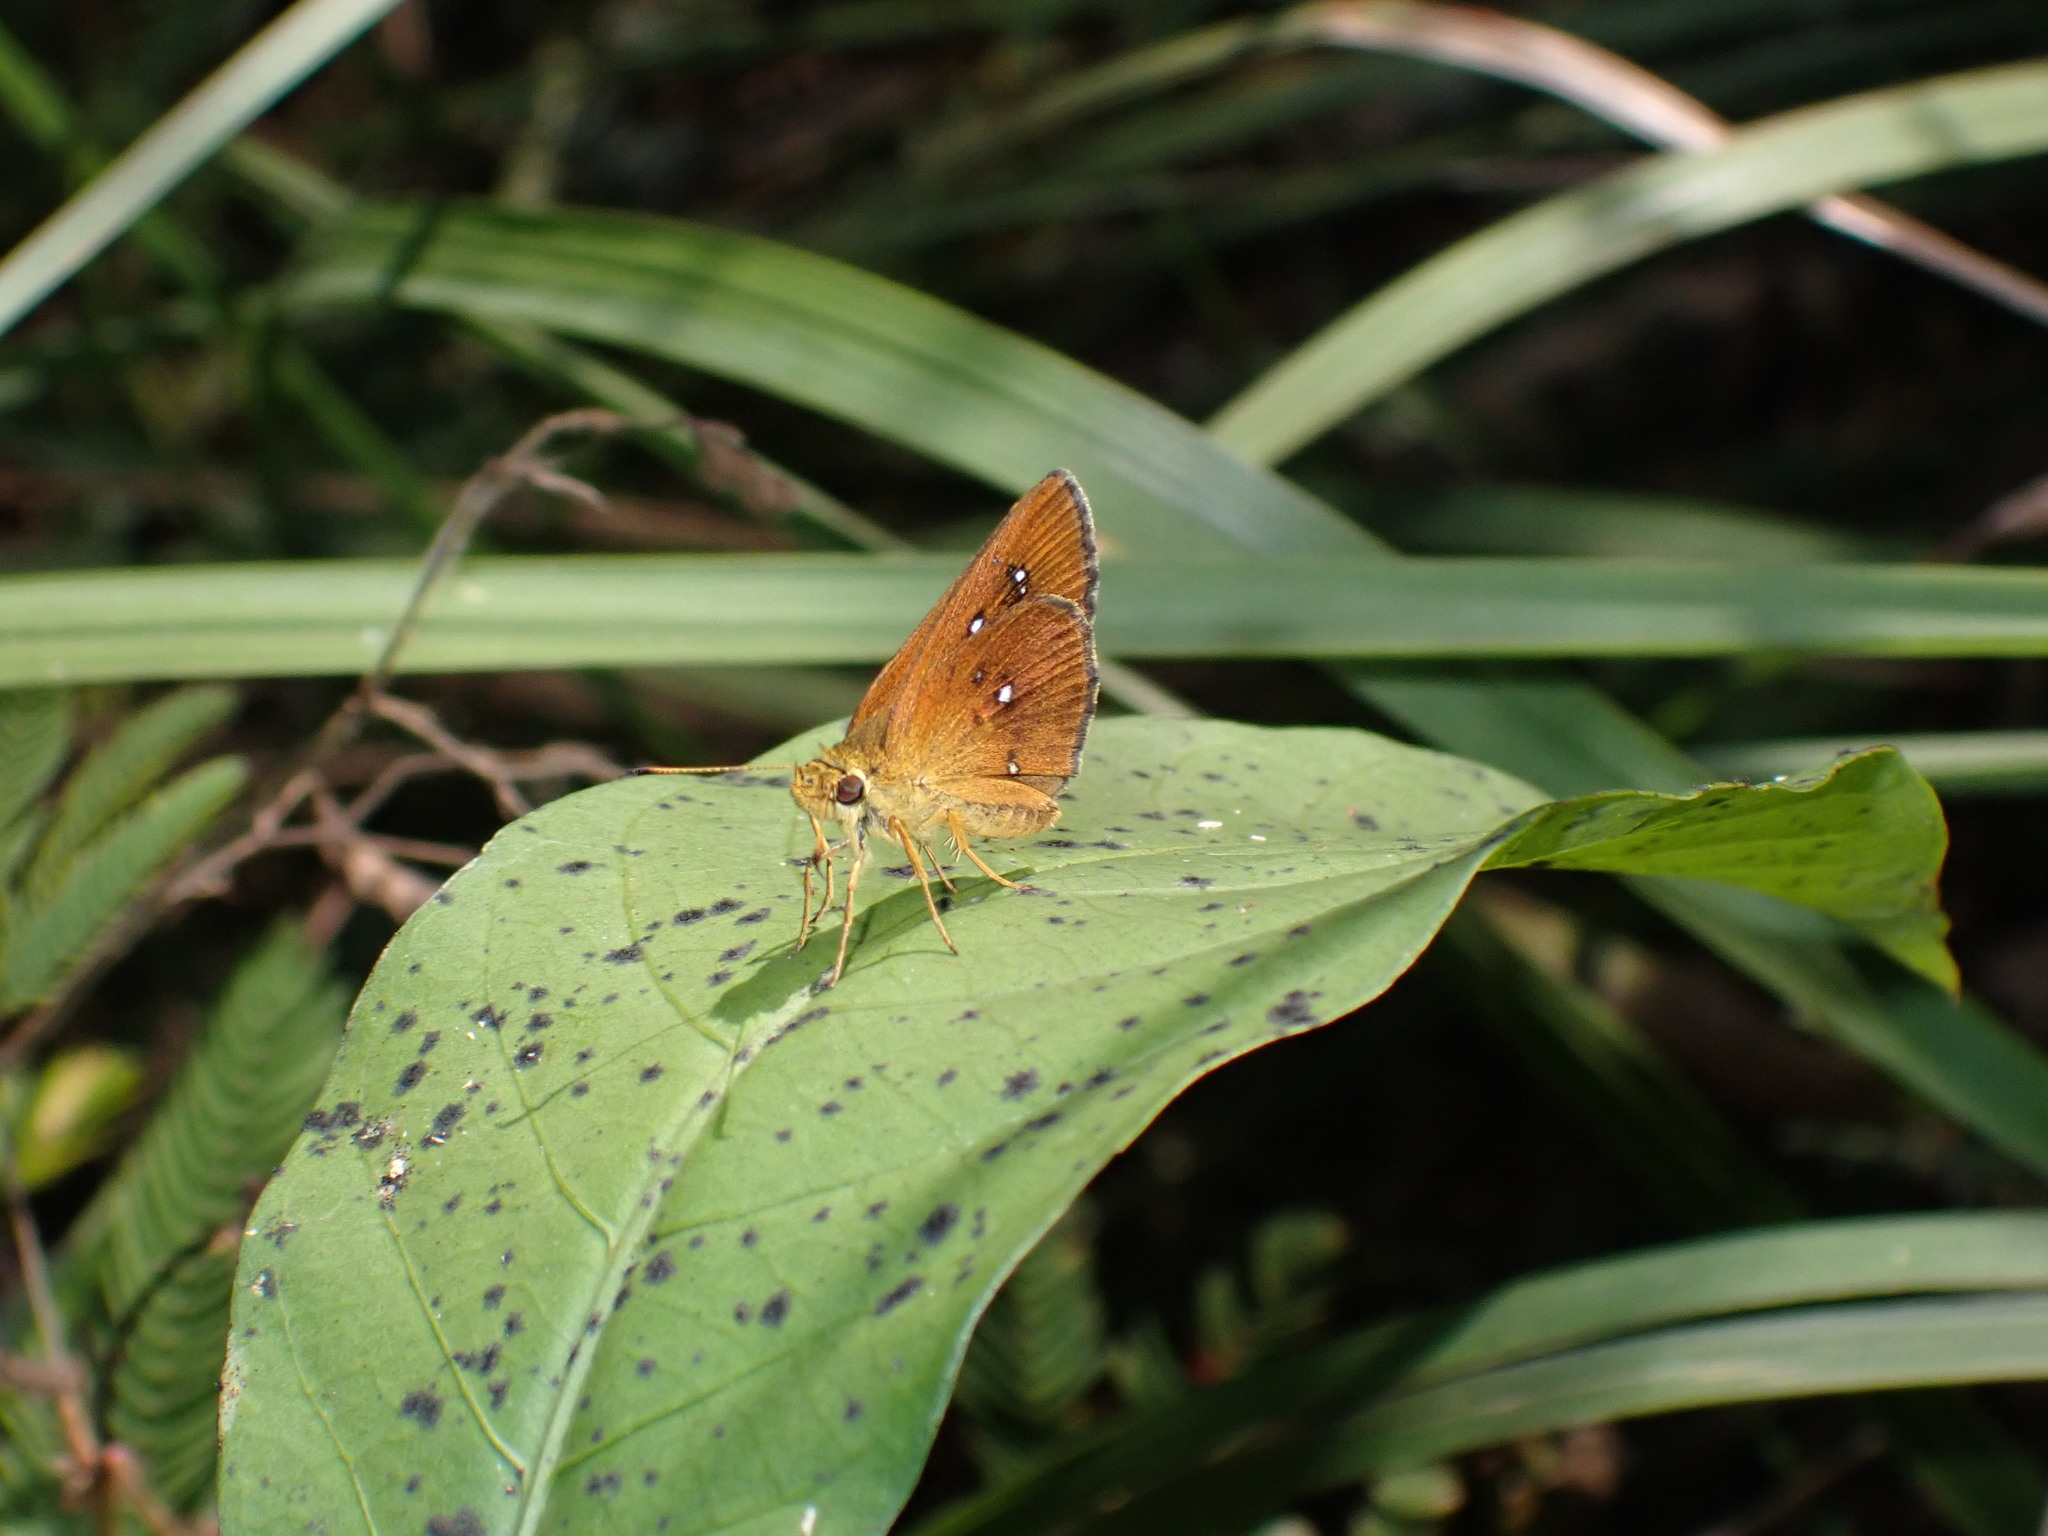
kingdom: Animalia
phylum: Arthropoda
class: Insecta
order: Lepidoptera
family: Hesperiidae
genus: Iambrix
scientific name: Iambrix salsala
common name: Chestnut bob
